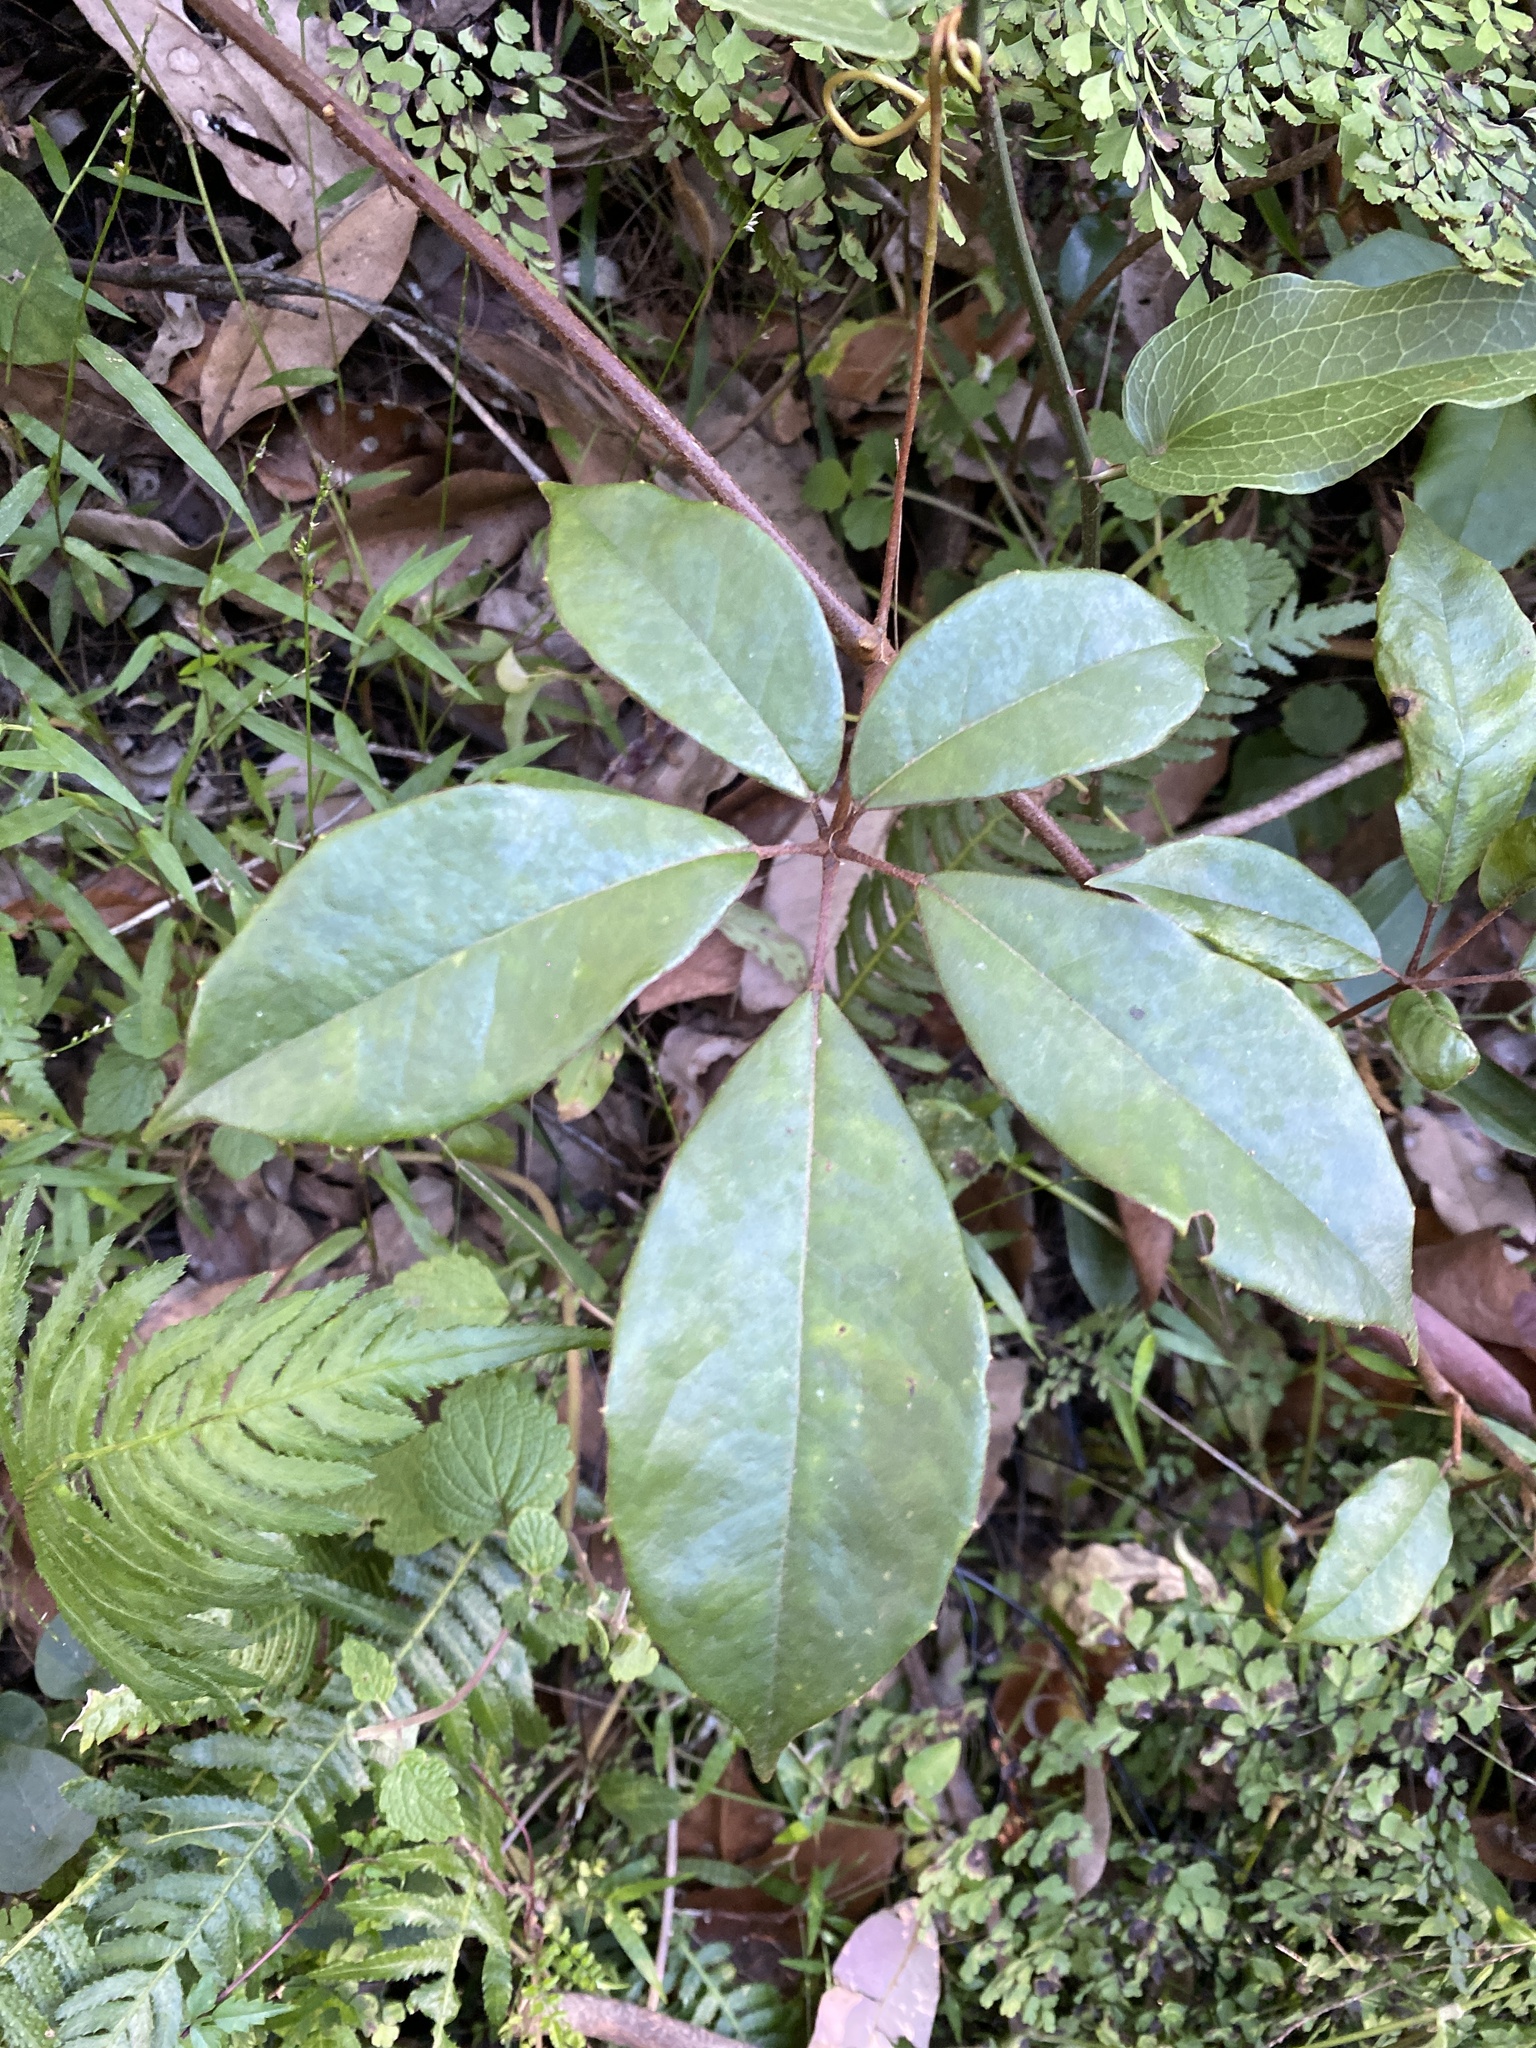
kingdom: Plantae
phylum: Tracheophyta
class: Magnoliopsida
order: Vitales
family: Vitaceae
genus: Nothocissus
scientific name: Nothocissus hypoglauca
